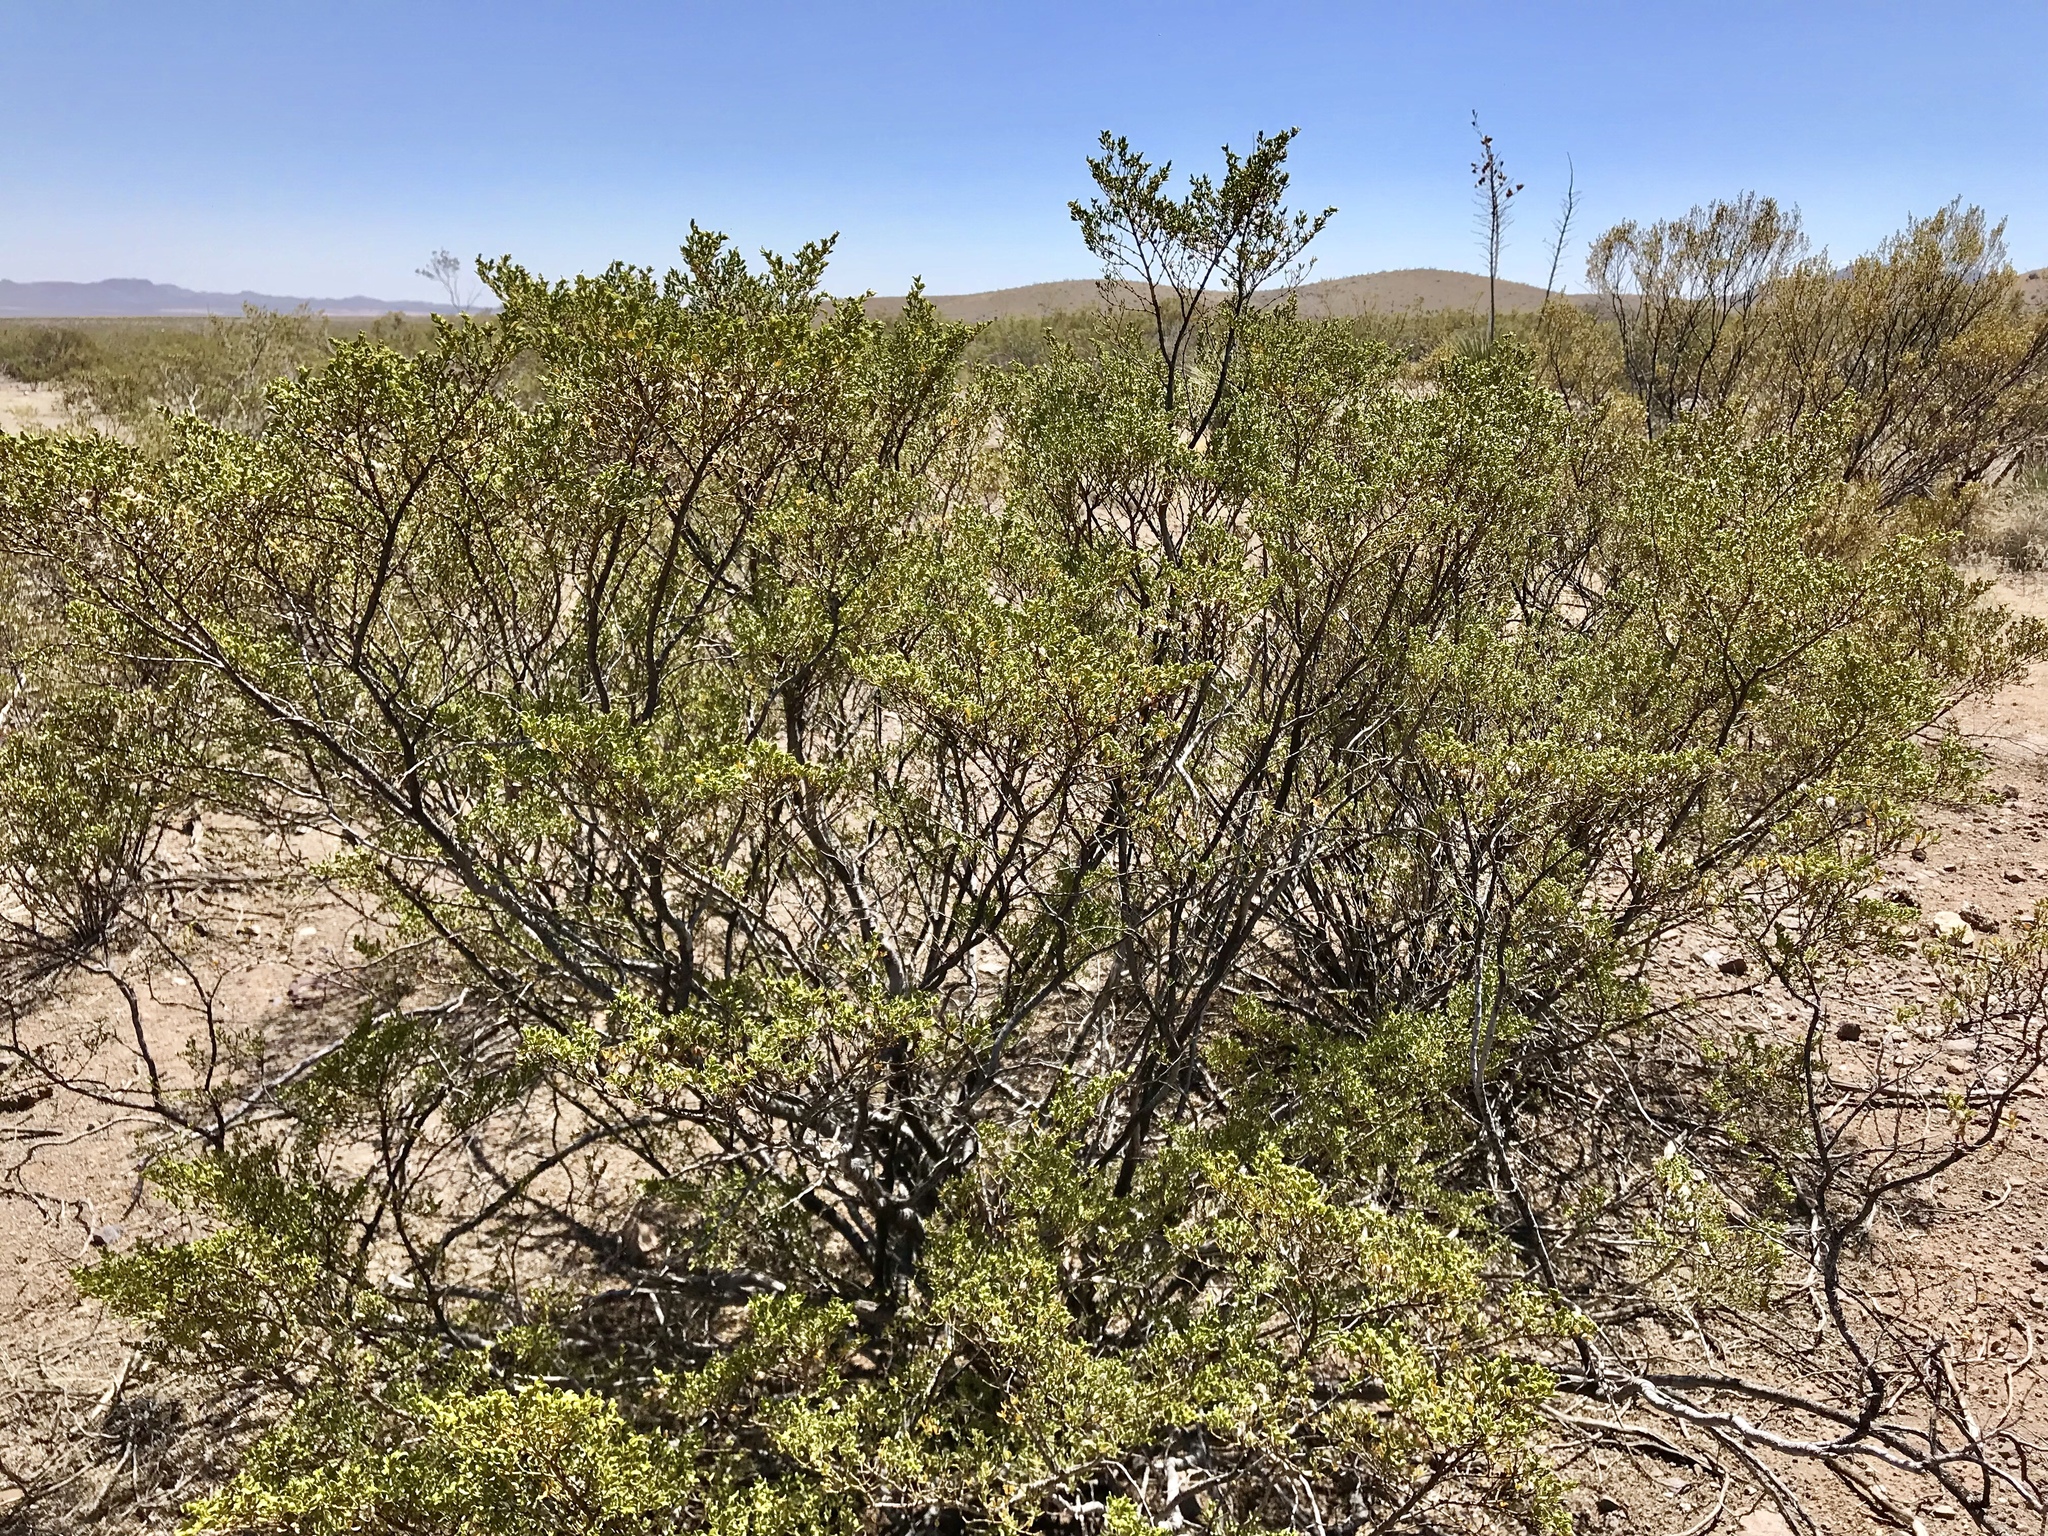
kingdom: Plantae
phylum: Tracheophyta
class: Magnoliopsida
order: Zygophyllales
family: Zygophyllaceae
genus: Larrea
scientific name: Larrea tridentata
